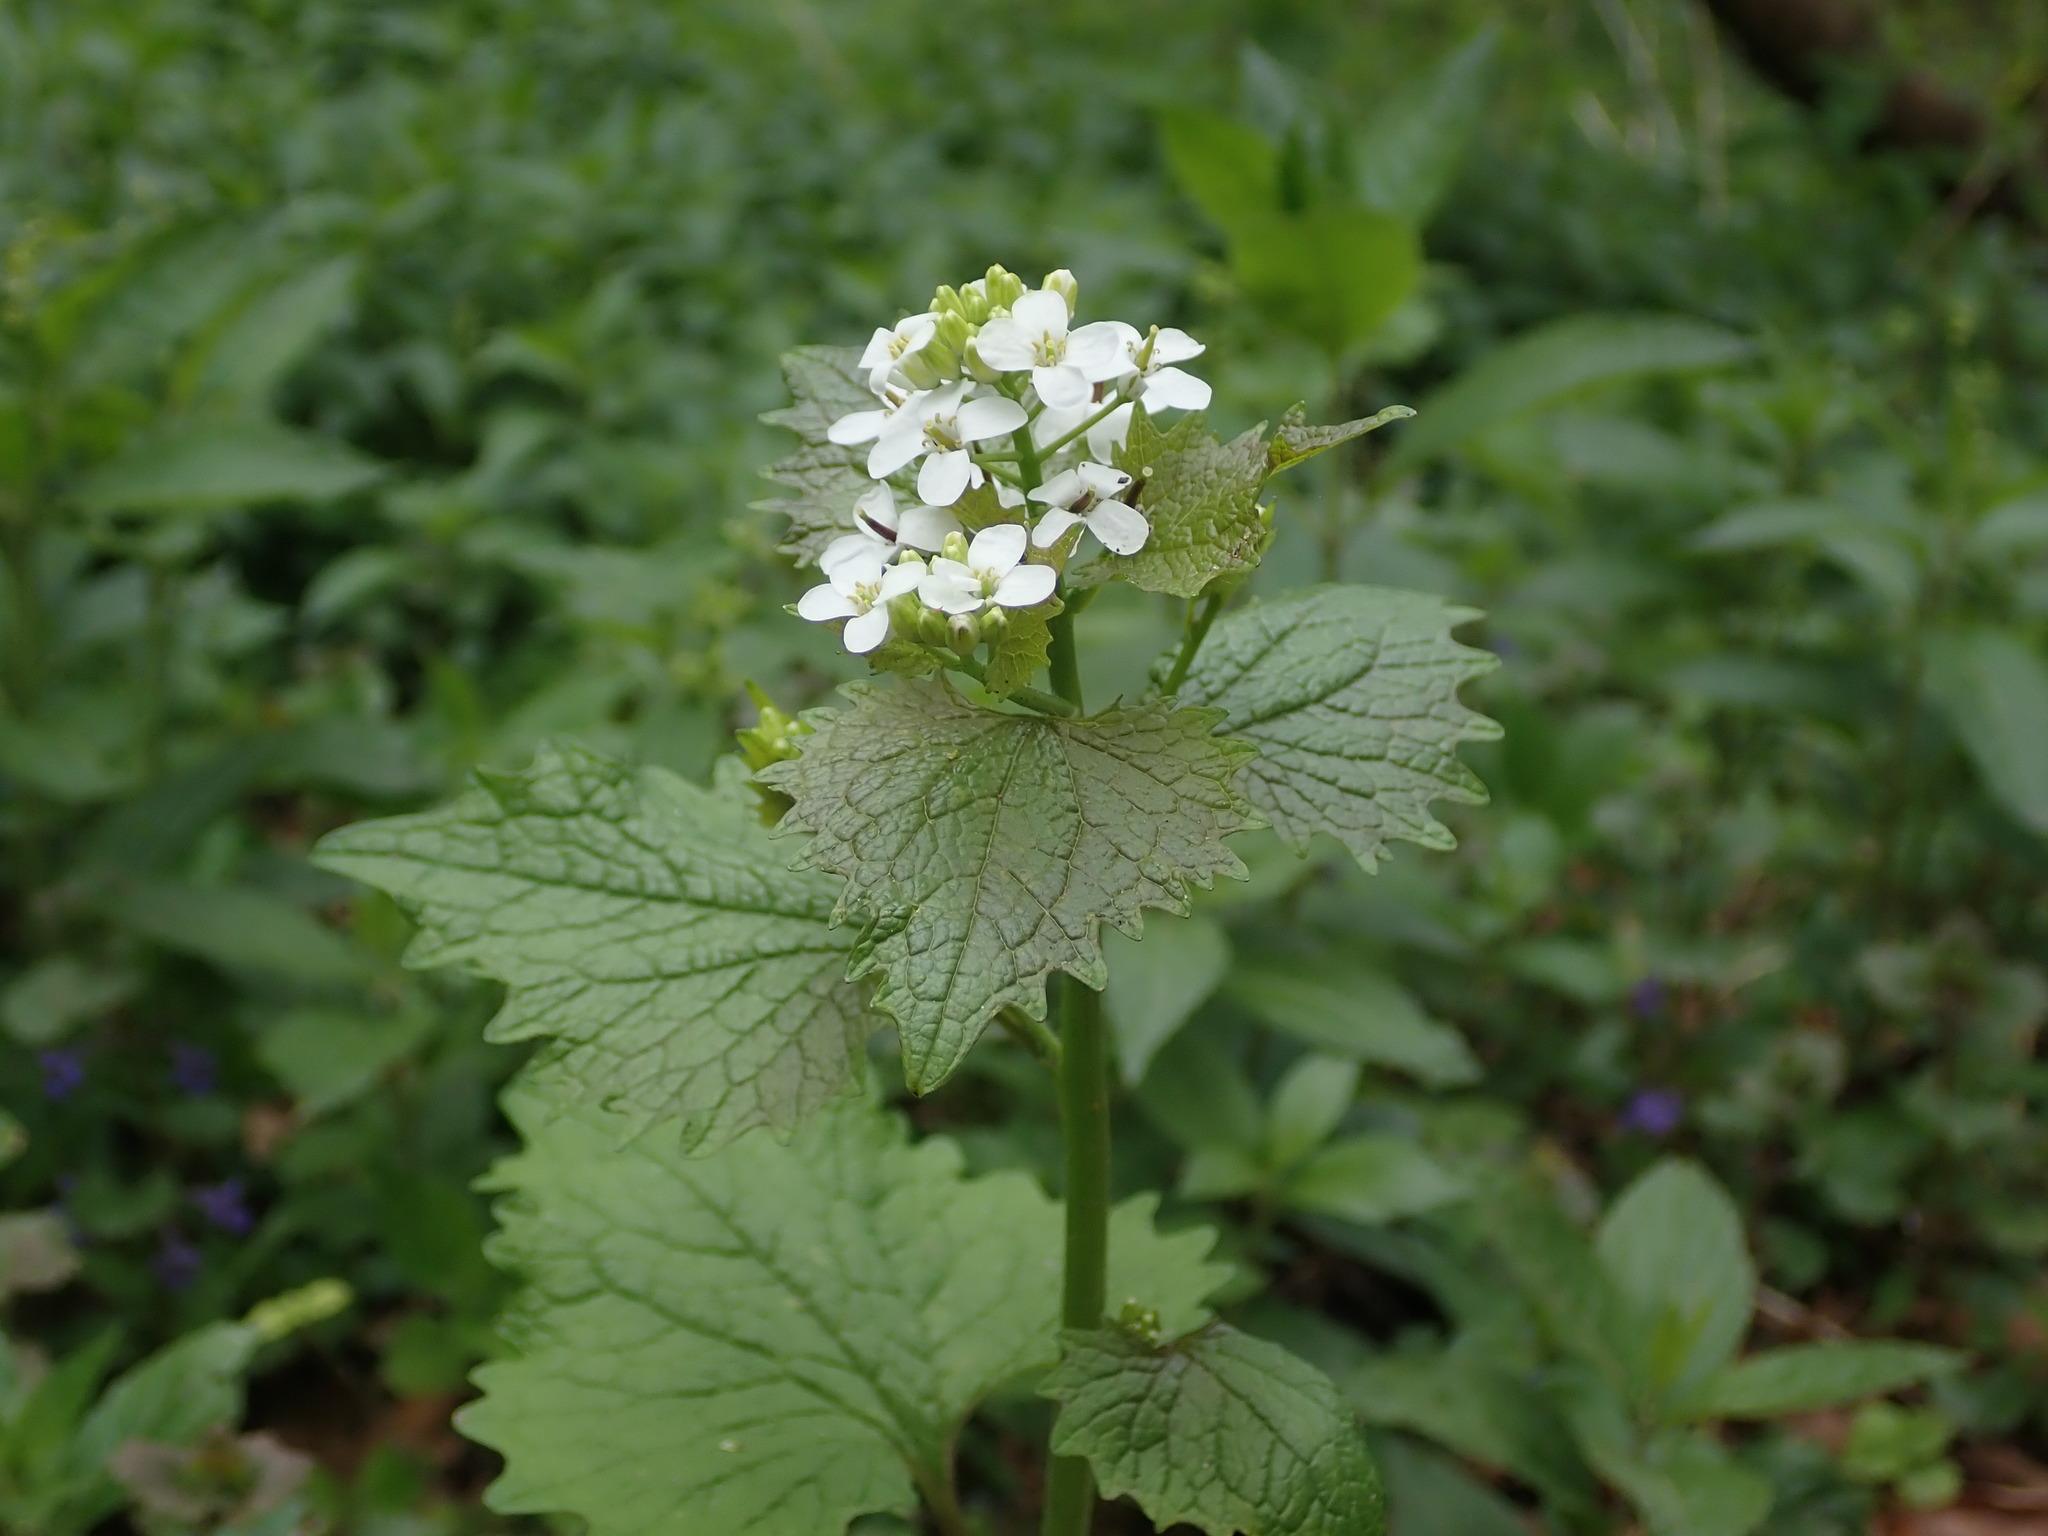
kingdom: Plantae
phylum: Tracheophyta
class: Magnoliopsida
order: Brassicales
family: Brassicaceae
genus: Alliaria
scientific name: Alliaria petiolata
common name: Garlic mustard
